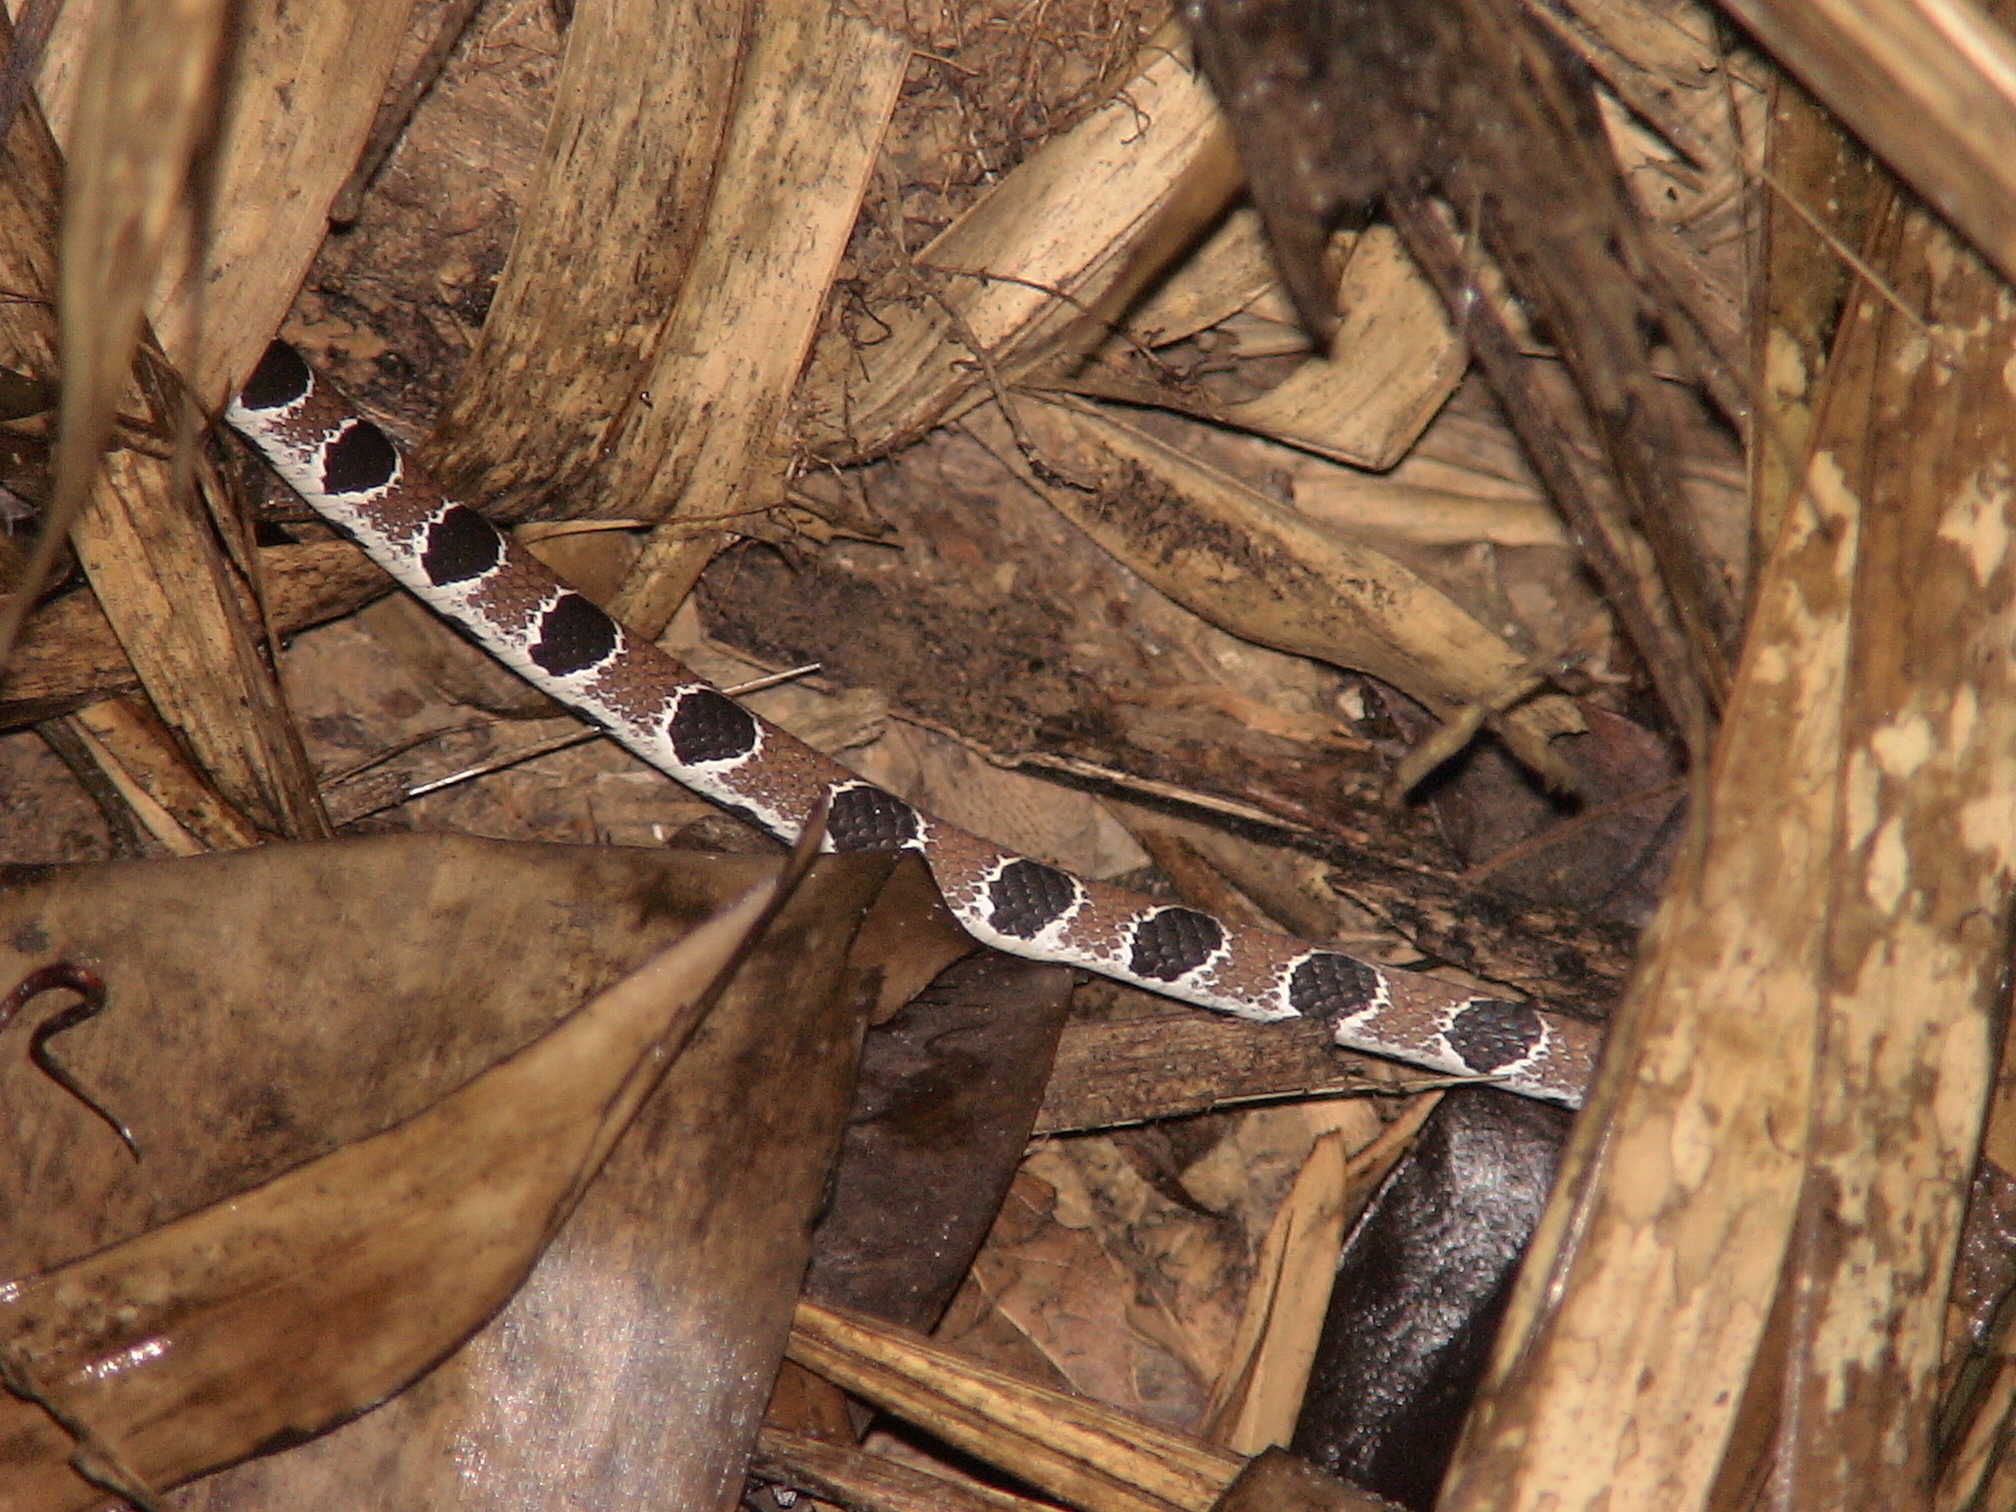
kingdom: Animalia
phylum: Chordata
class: Squamata
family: Colubridae
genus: Dipsas
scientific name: Dipsas catesbyi
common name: Catesby's snail-eater
